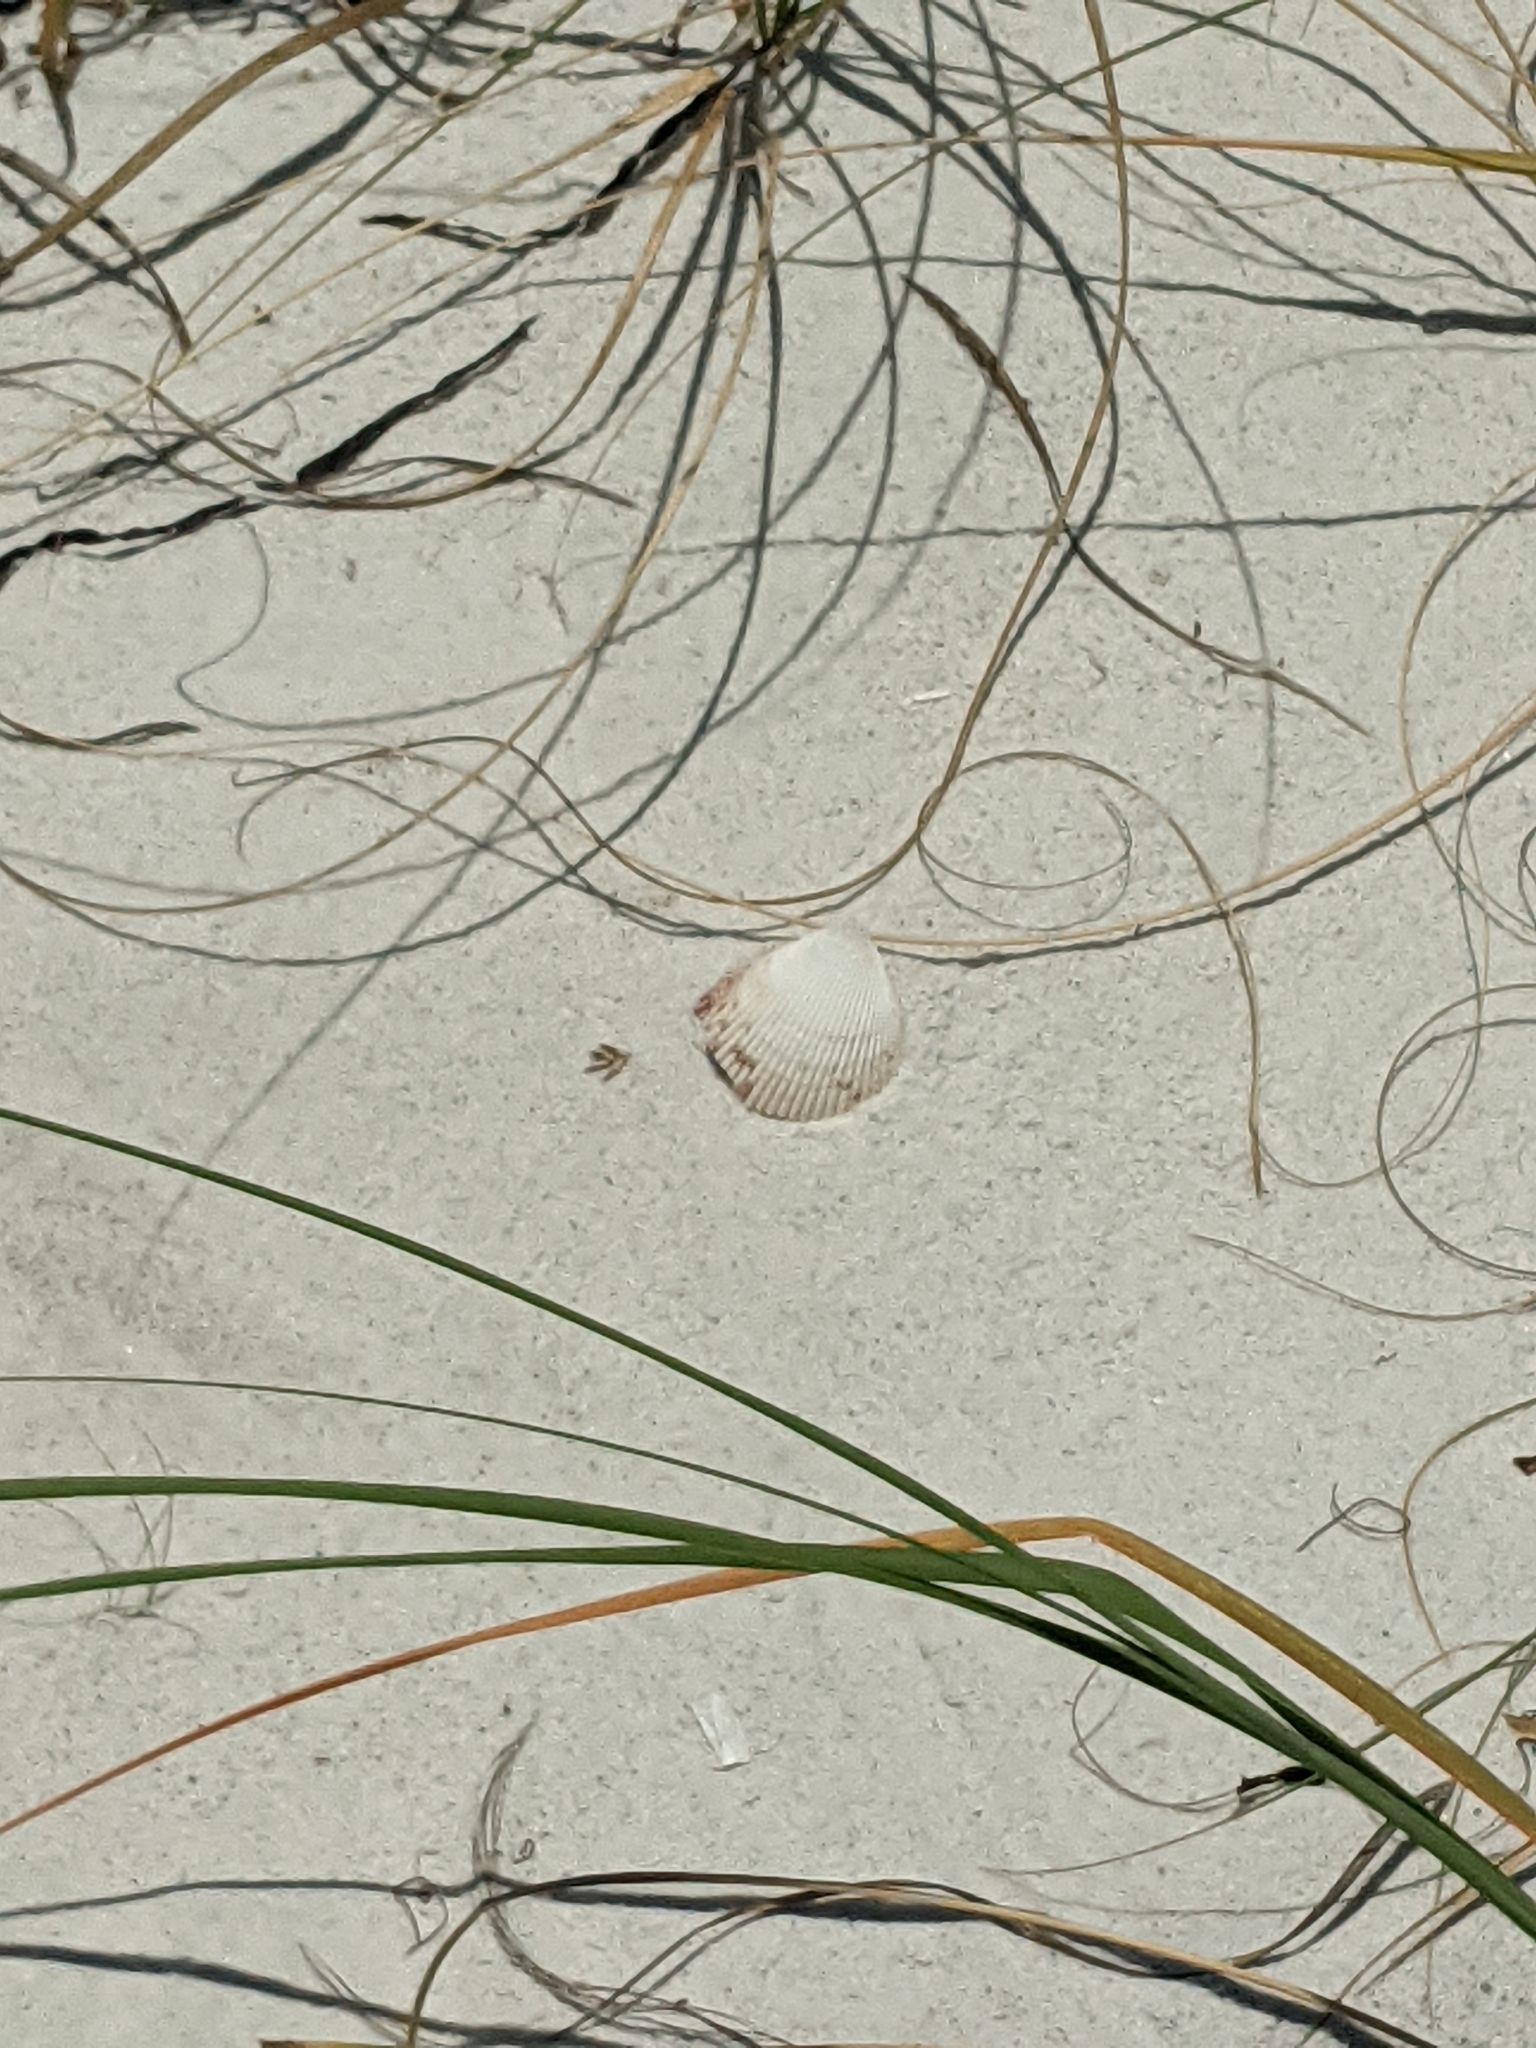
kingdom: Animalia
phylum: Mollusca
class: Bivalvia
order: Cardiida
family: Cardiidae
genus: Dinocardium
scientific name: Dinocardium robustum
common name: Atlantic giant cockle
